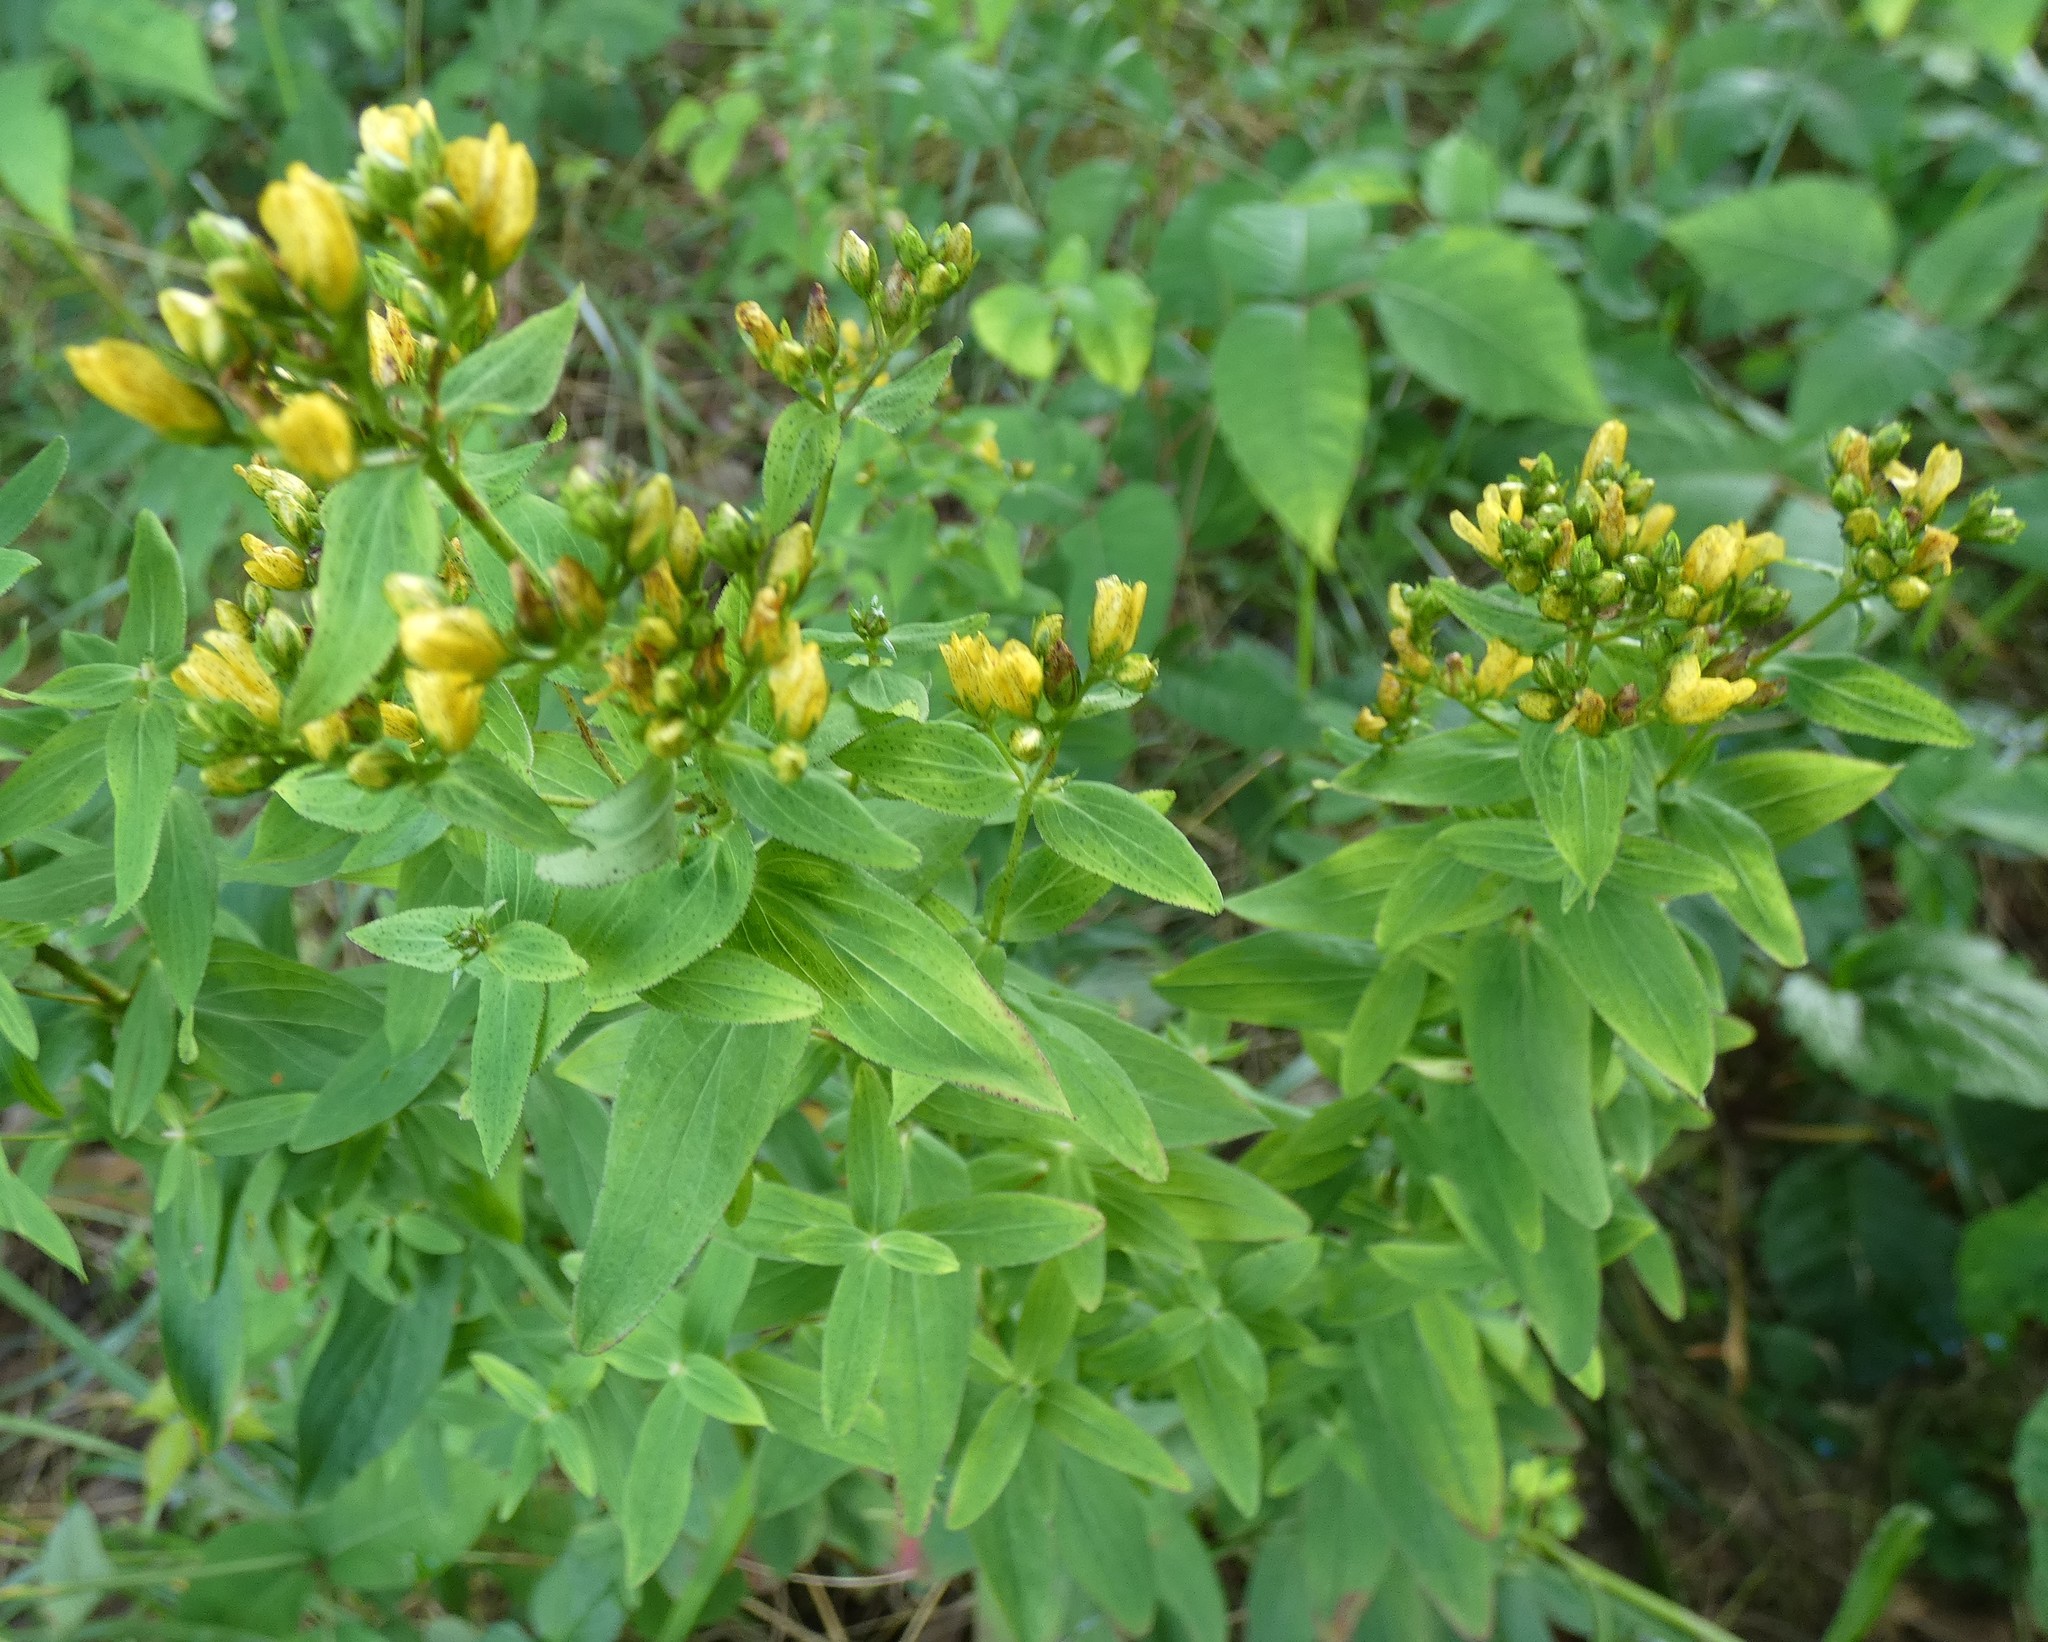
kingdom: Plantae
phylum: Tracheophyta
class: Magnoliopsida
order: Malpighiales
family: Hypericaceae
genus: Hypericum
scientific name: Hypericum punctatum
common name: Spotted st. john's-wort
